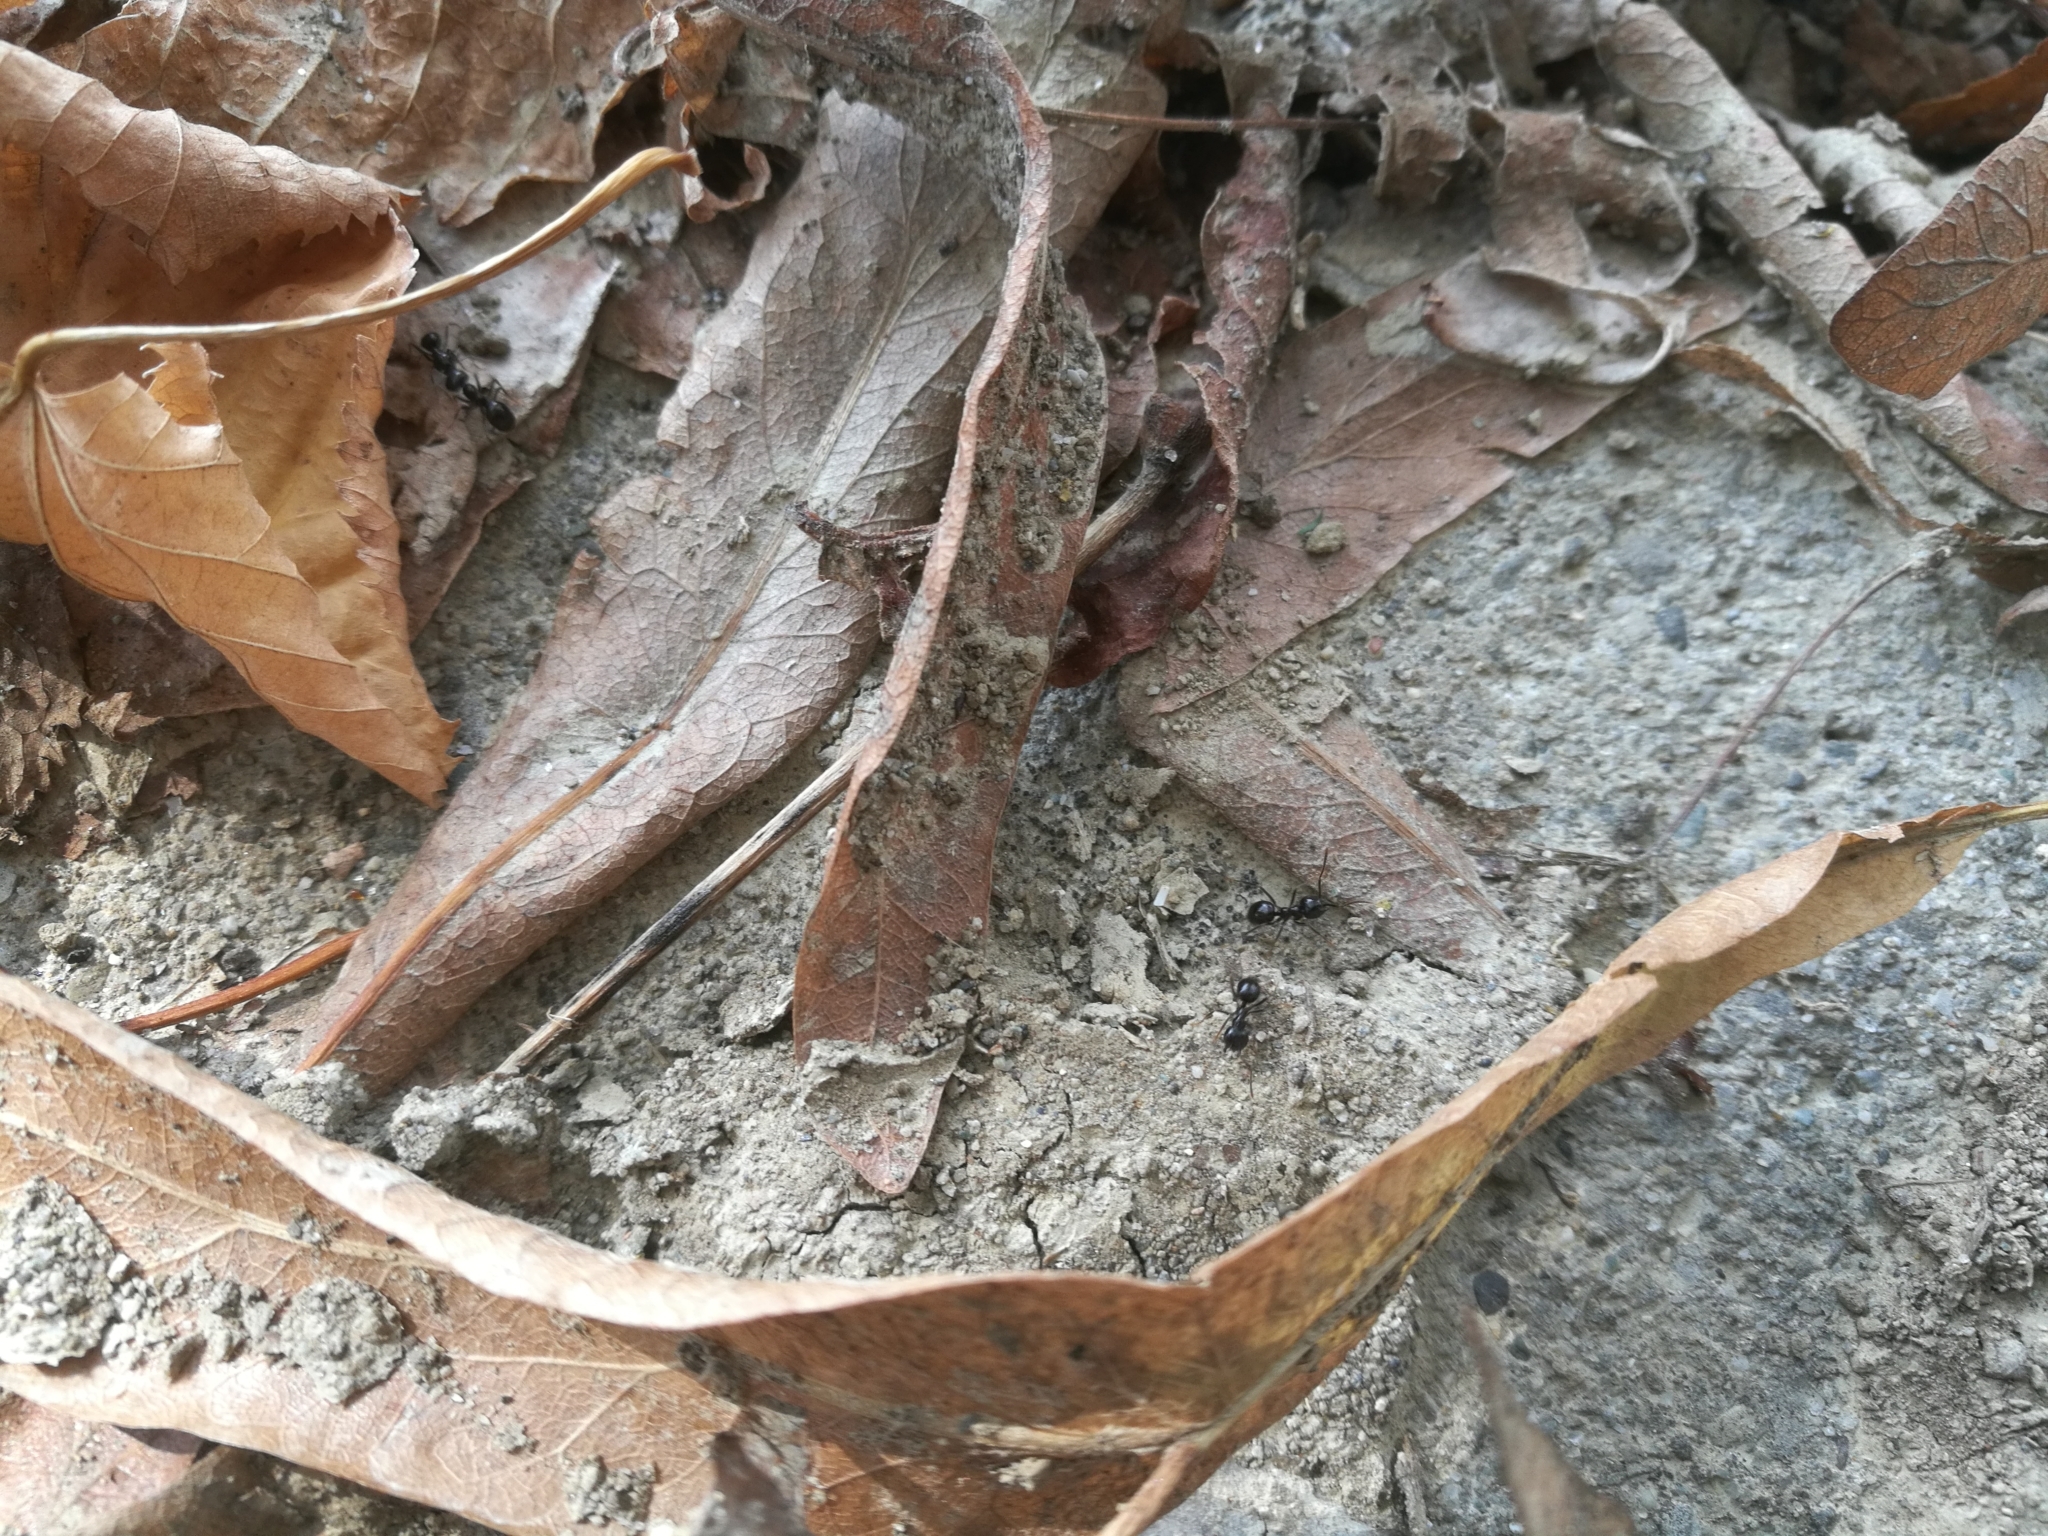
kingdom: Animalia
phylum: Arthropoda
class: Insecta
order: Hymenoptera
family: Formicidae
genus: Lasius
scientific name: Lasius fuliginosus
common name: Jet ant
